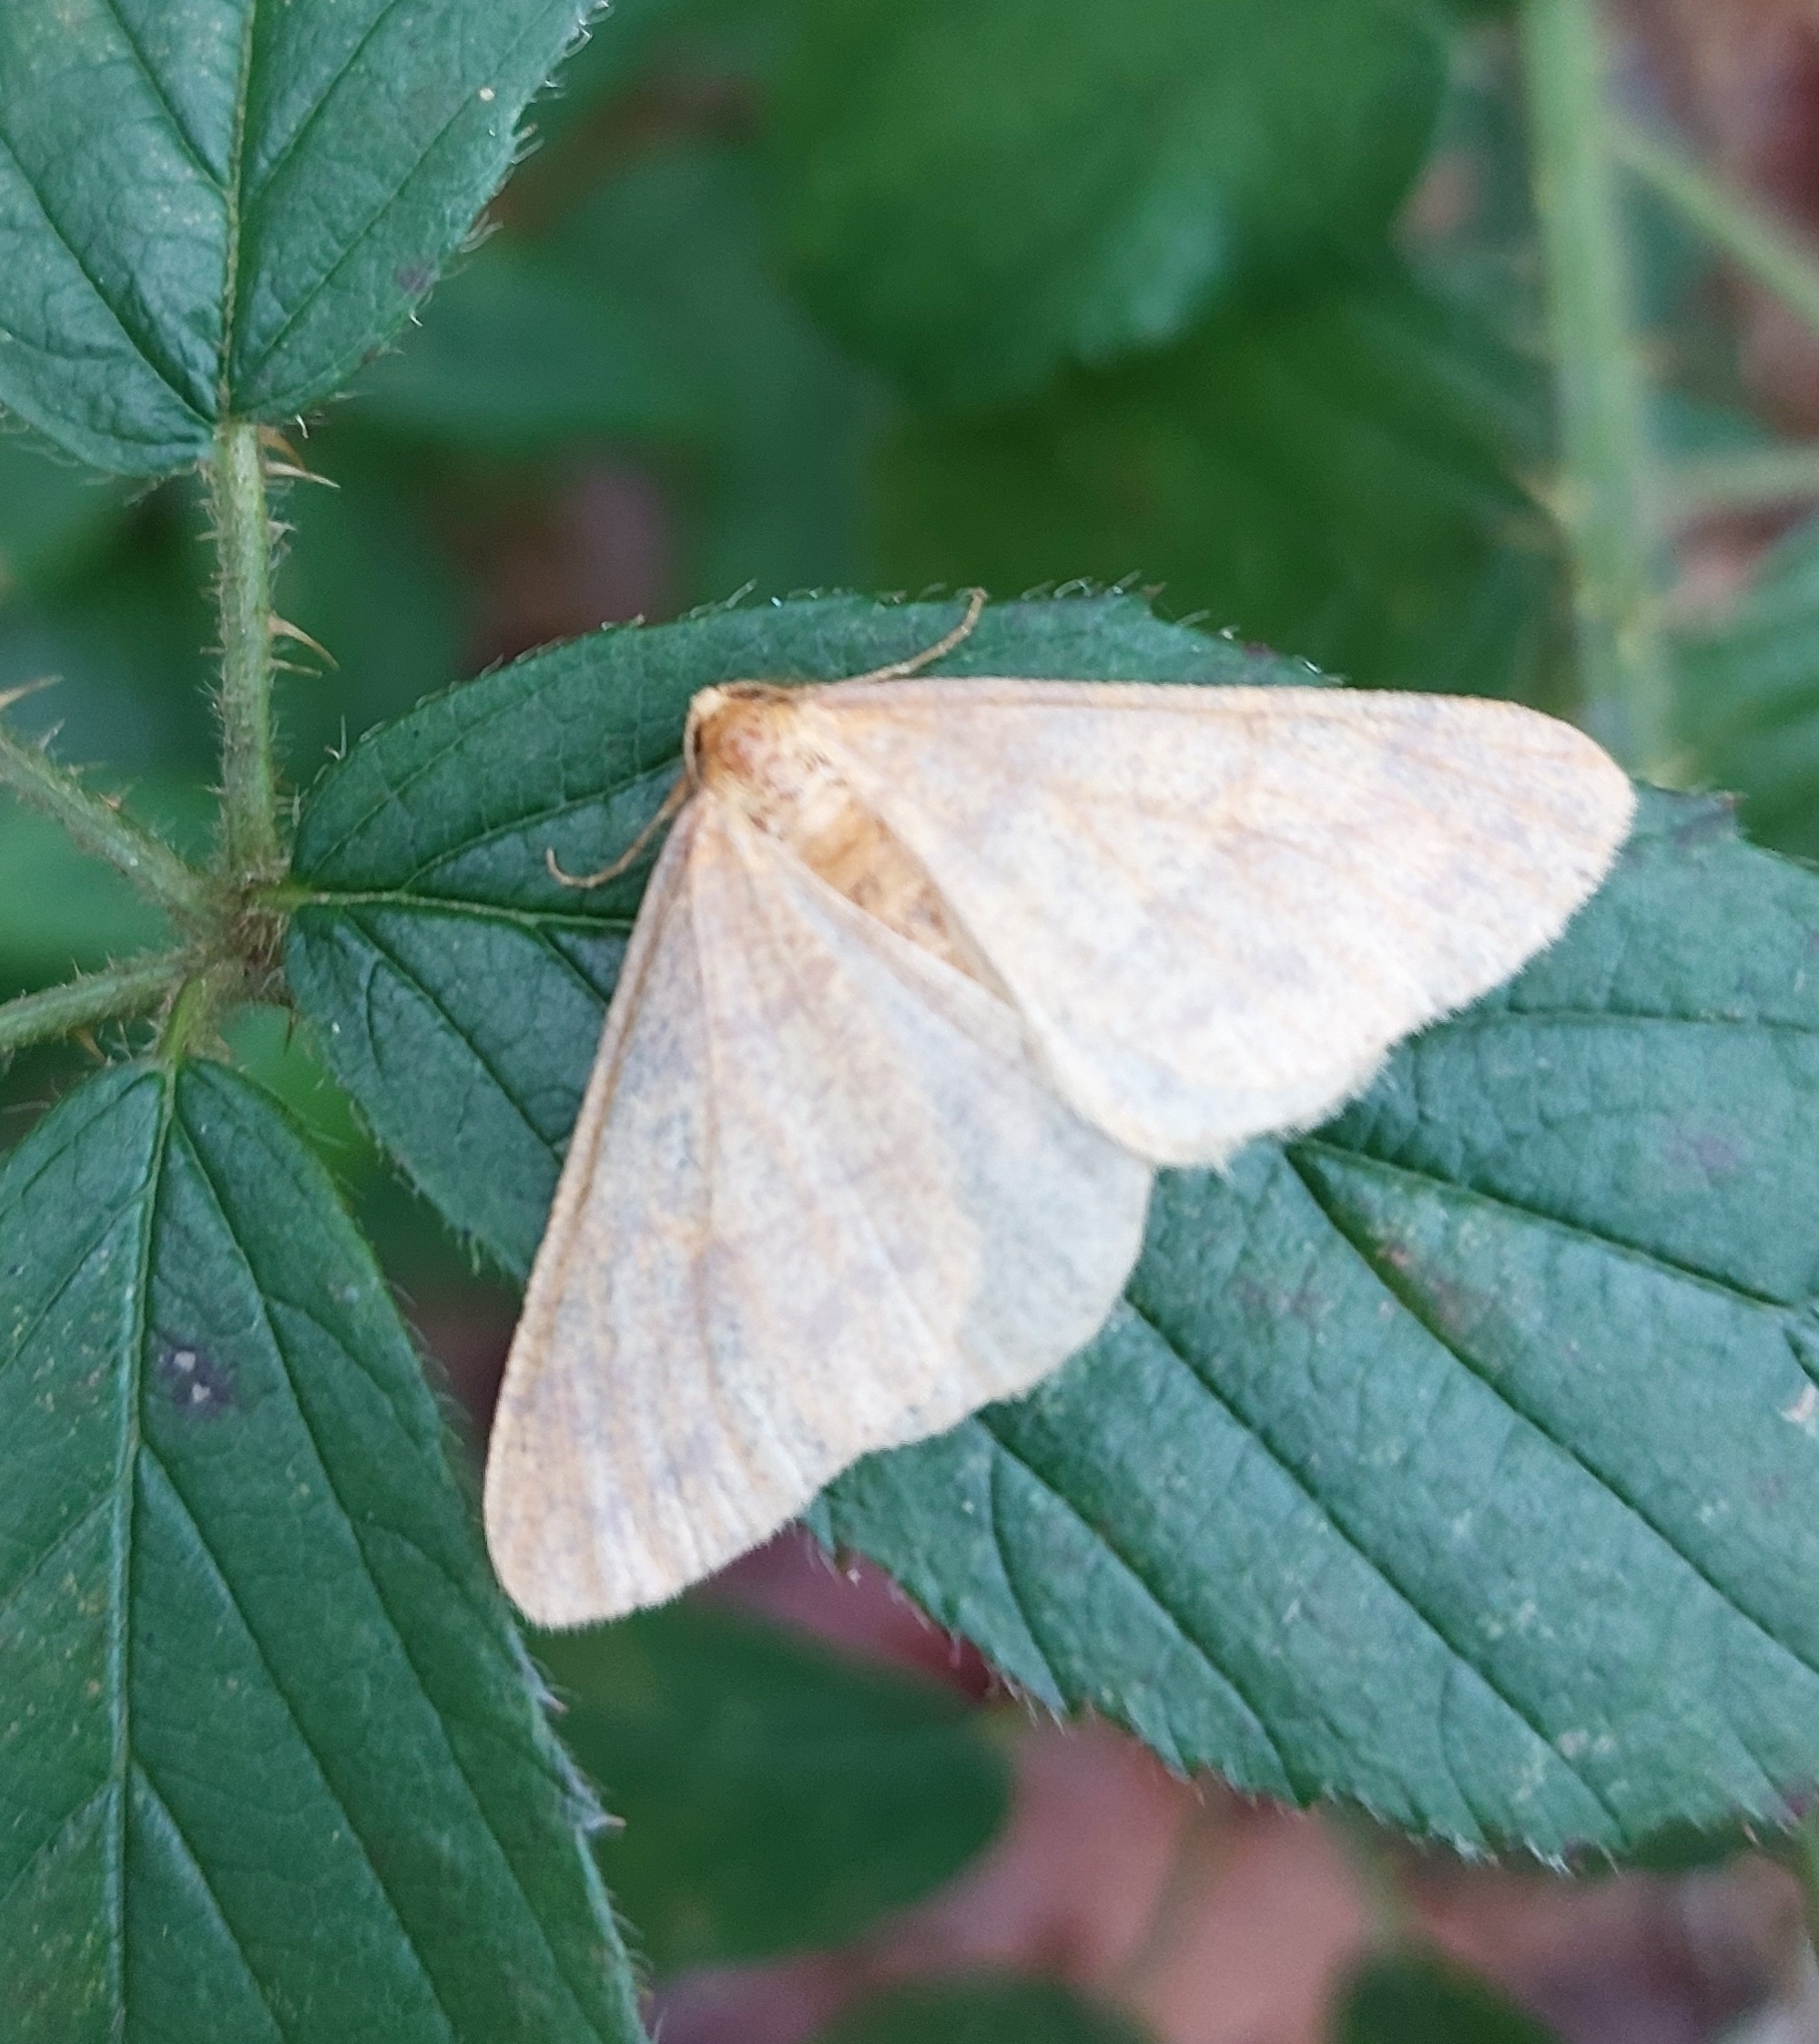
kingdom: Animalia
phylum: Arthropoda
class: Insecta
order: Lepidoptera
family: Geometridae
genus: Agriopis
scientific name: Agriopis aurantiaria
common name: Scarce umber
